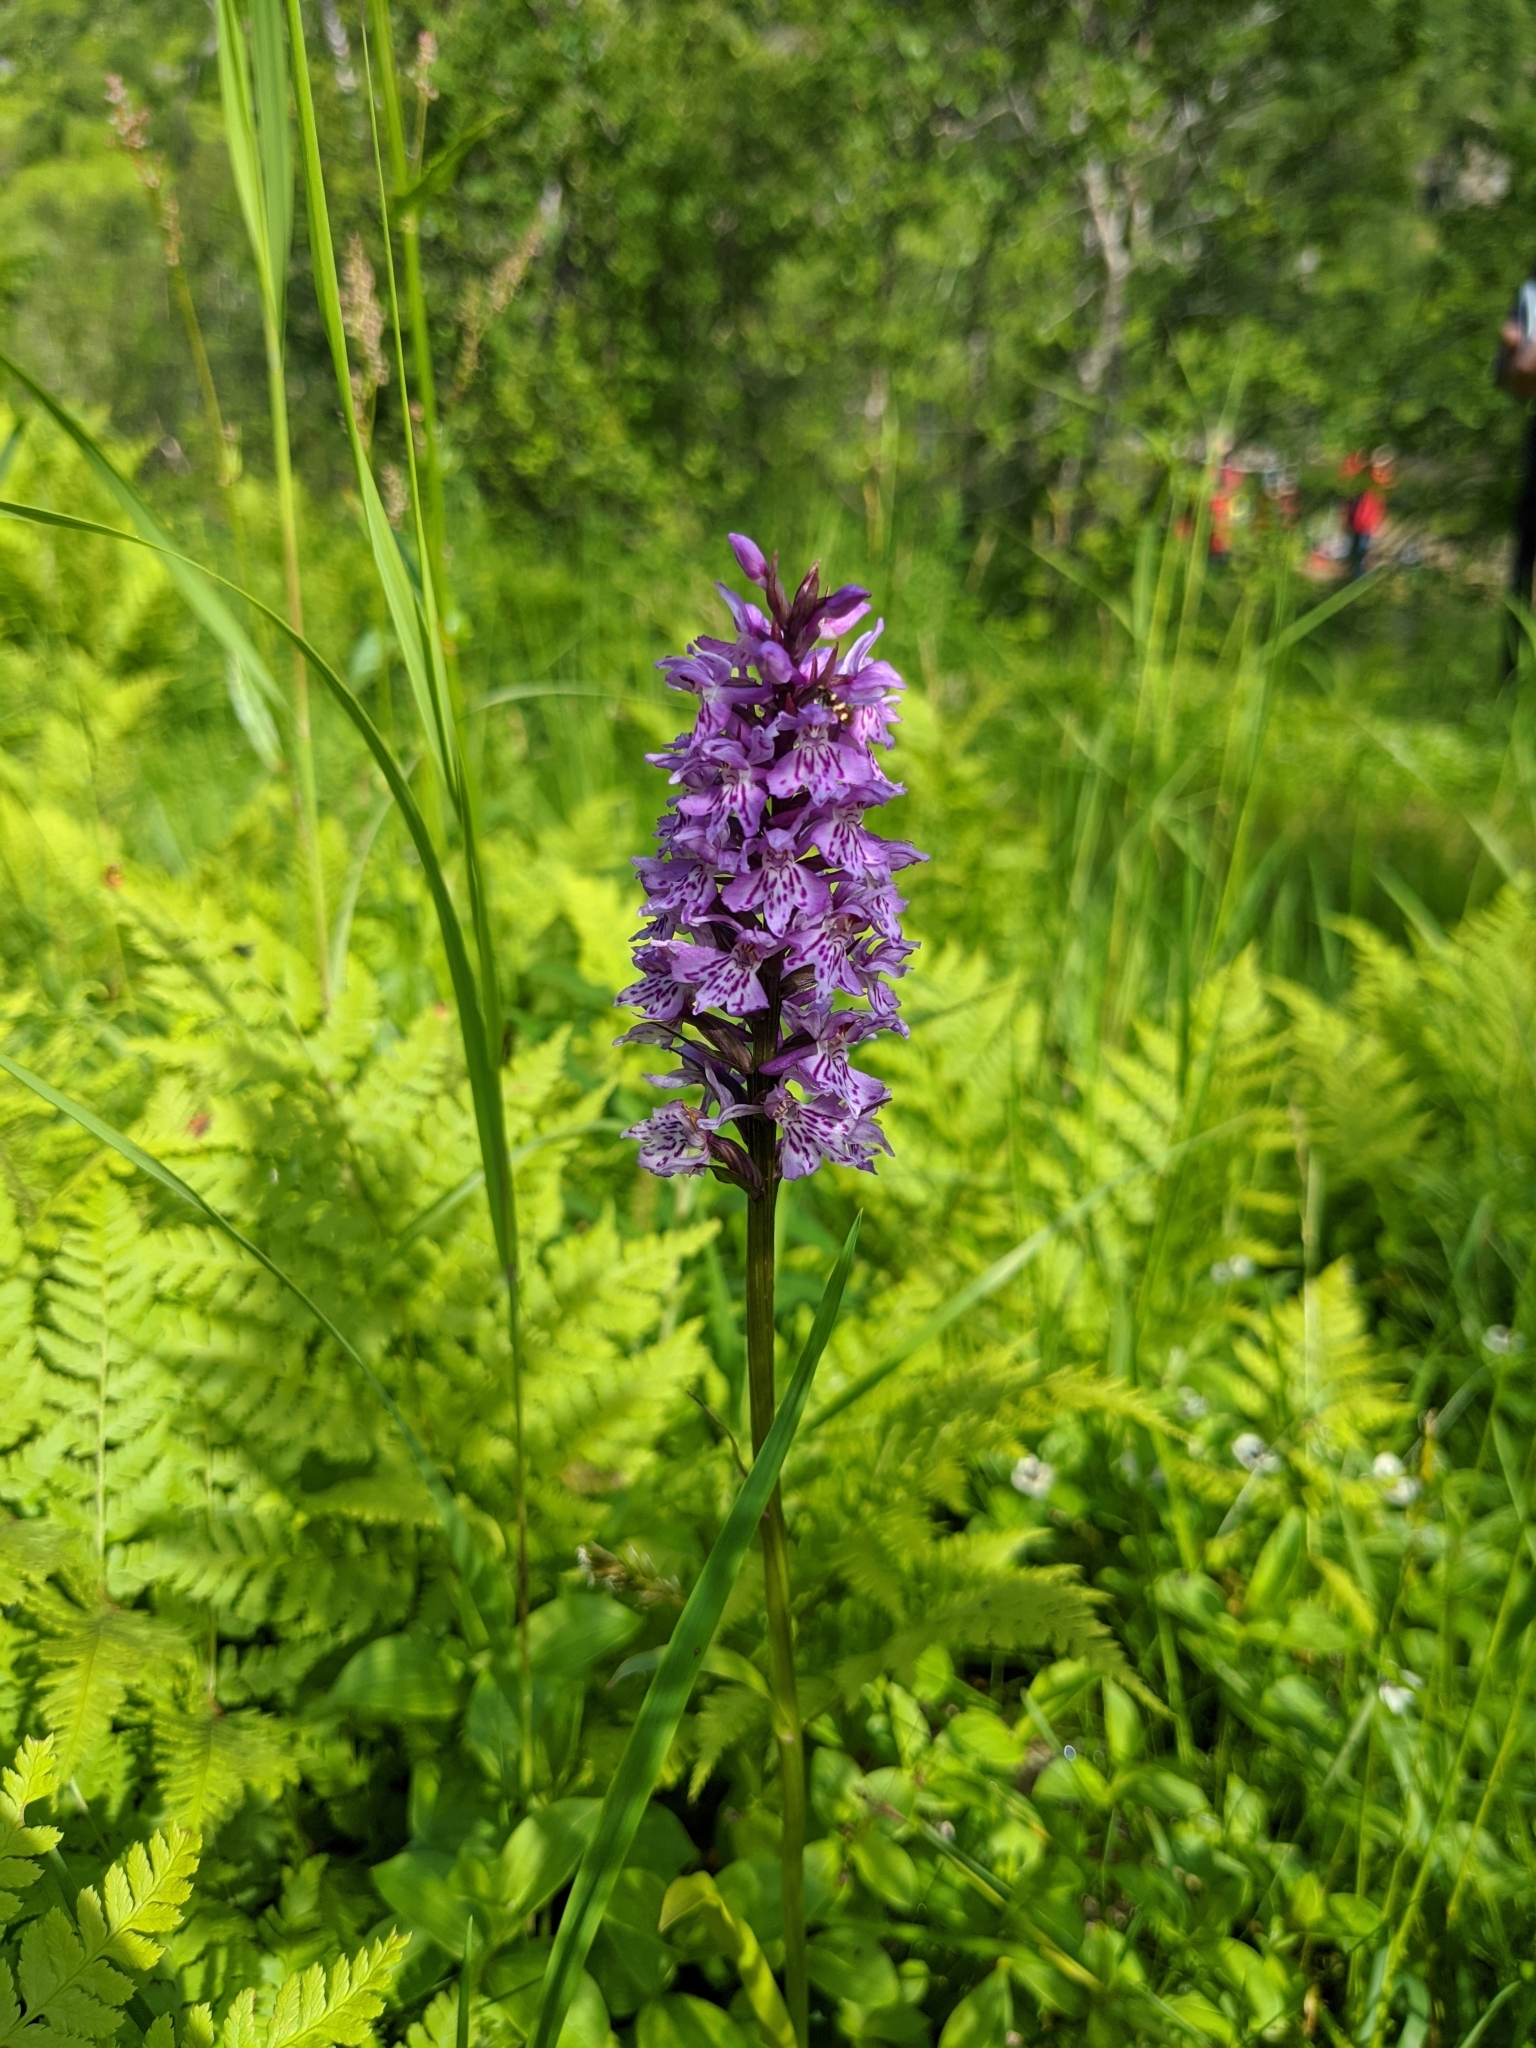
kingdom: Plantae
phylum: Tracheophyta
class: Liliopsida
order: Asparagales
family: Orchidaceae
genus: Dactylorhiza
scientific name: Dactylorhiza maculata
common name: Heath spotted-orchid
